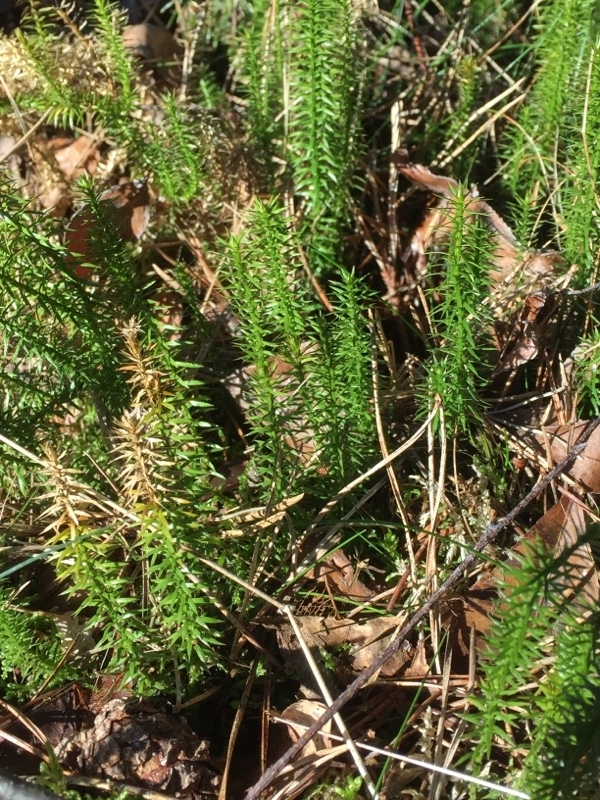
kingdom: Plantae
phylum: Tracheophyta
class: Lycopodiopsida
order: Lycopodiales
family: Lycopodiaceae
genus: Spinulum
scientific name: Spinulum annotinum
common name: Interrupted club-moss
